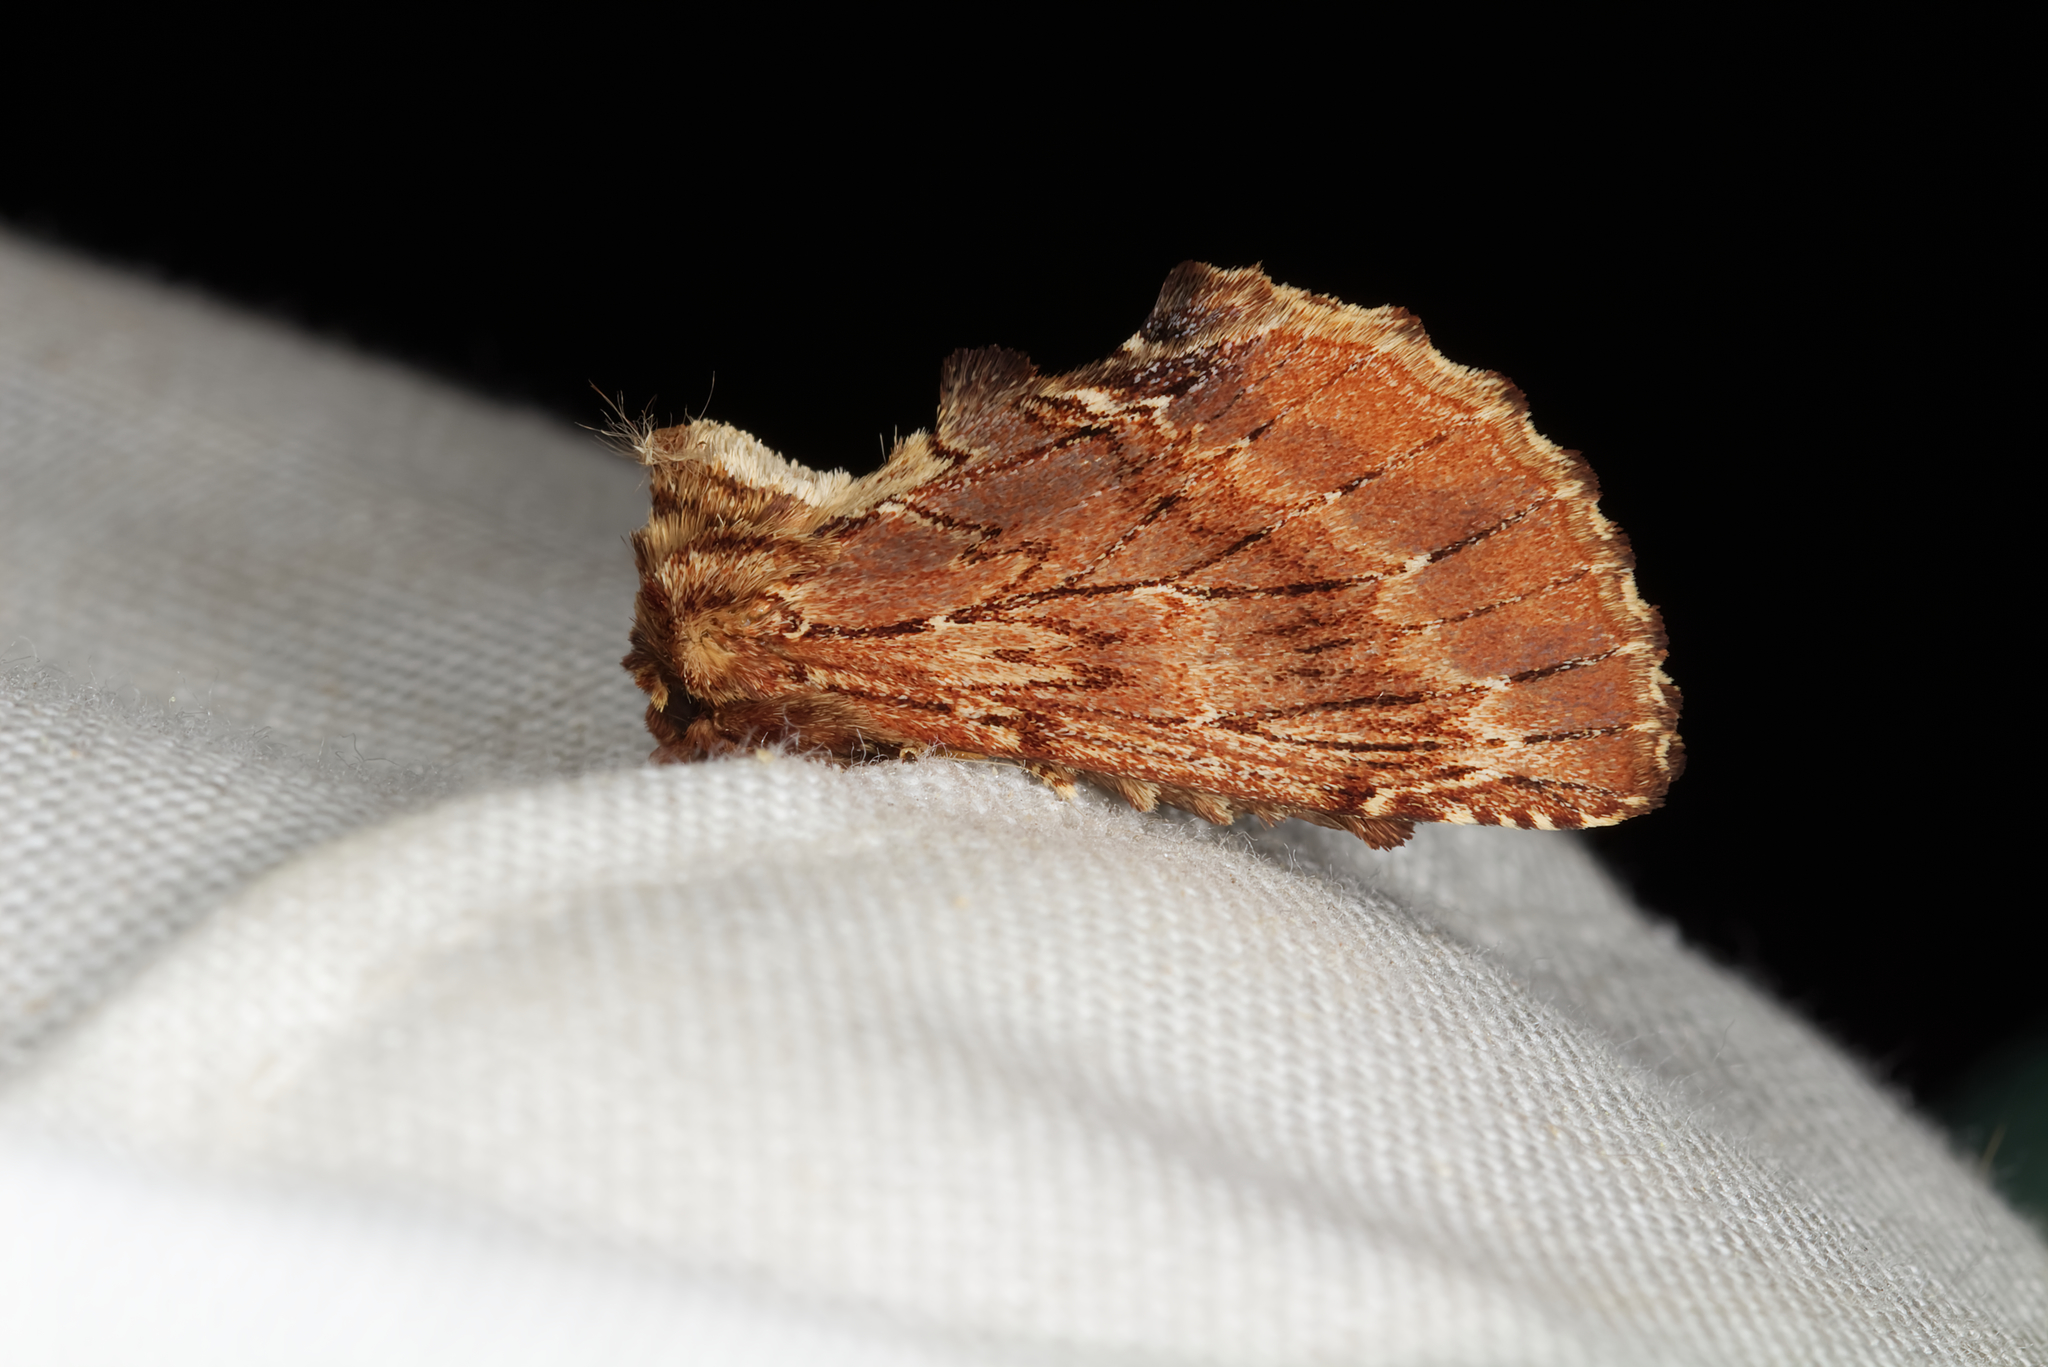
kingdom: Animalia
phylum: Arthropoda
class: Insecta
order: Lepidoptera
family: Notodontidae
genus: Ptilodon
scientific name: Ptilodon capucina
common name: Coxcomb prominent
